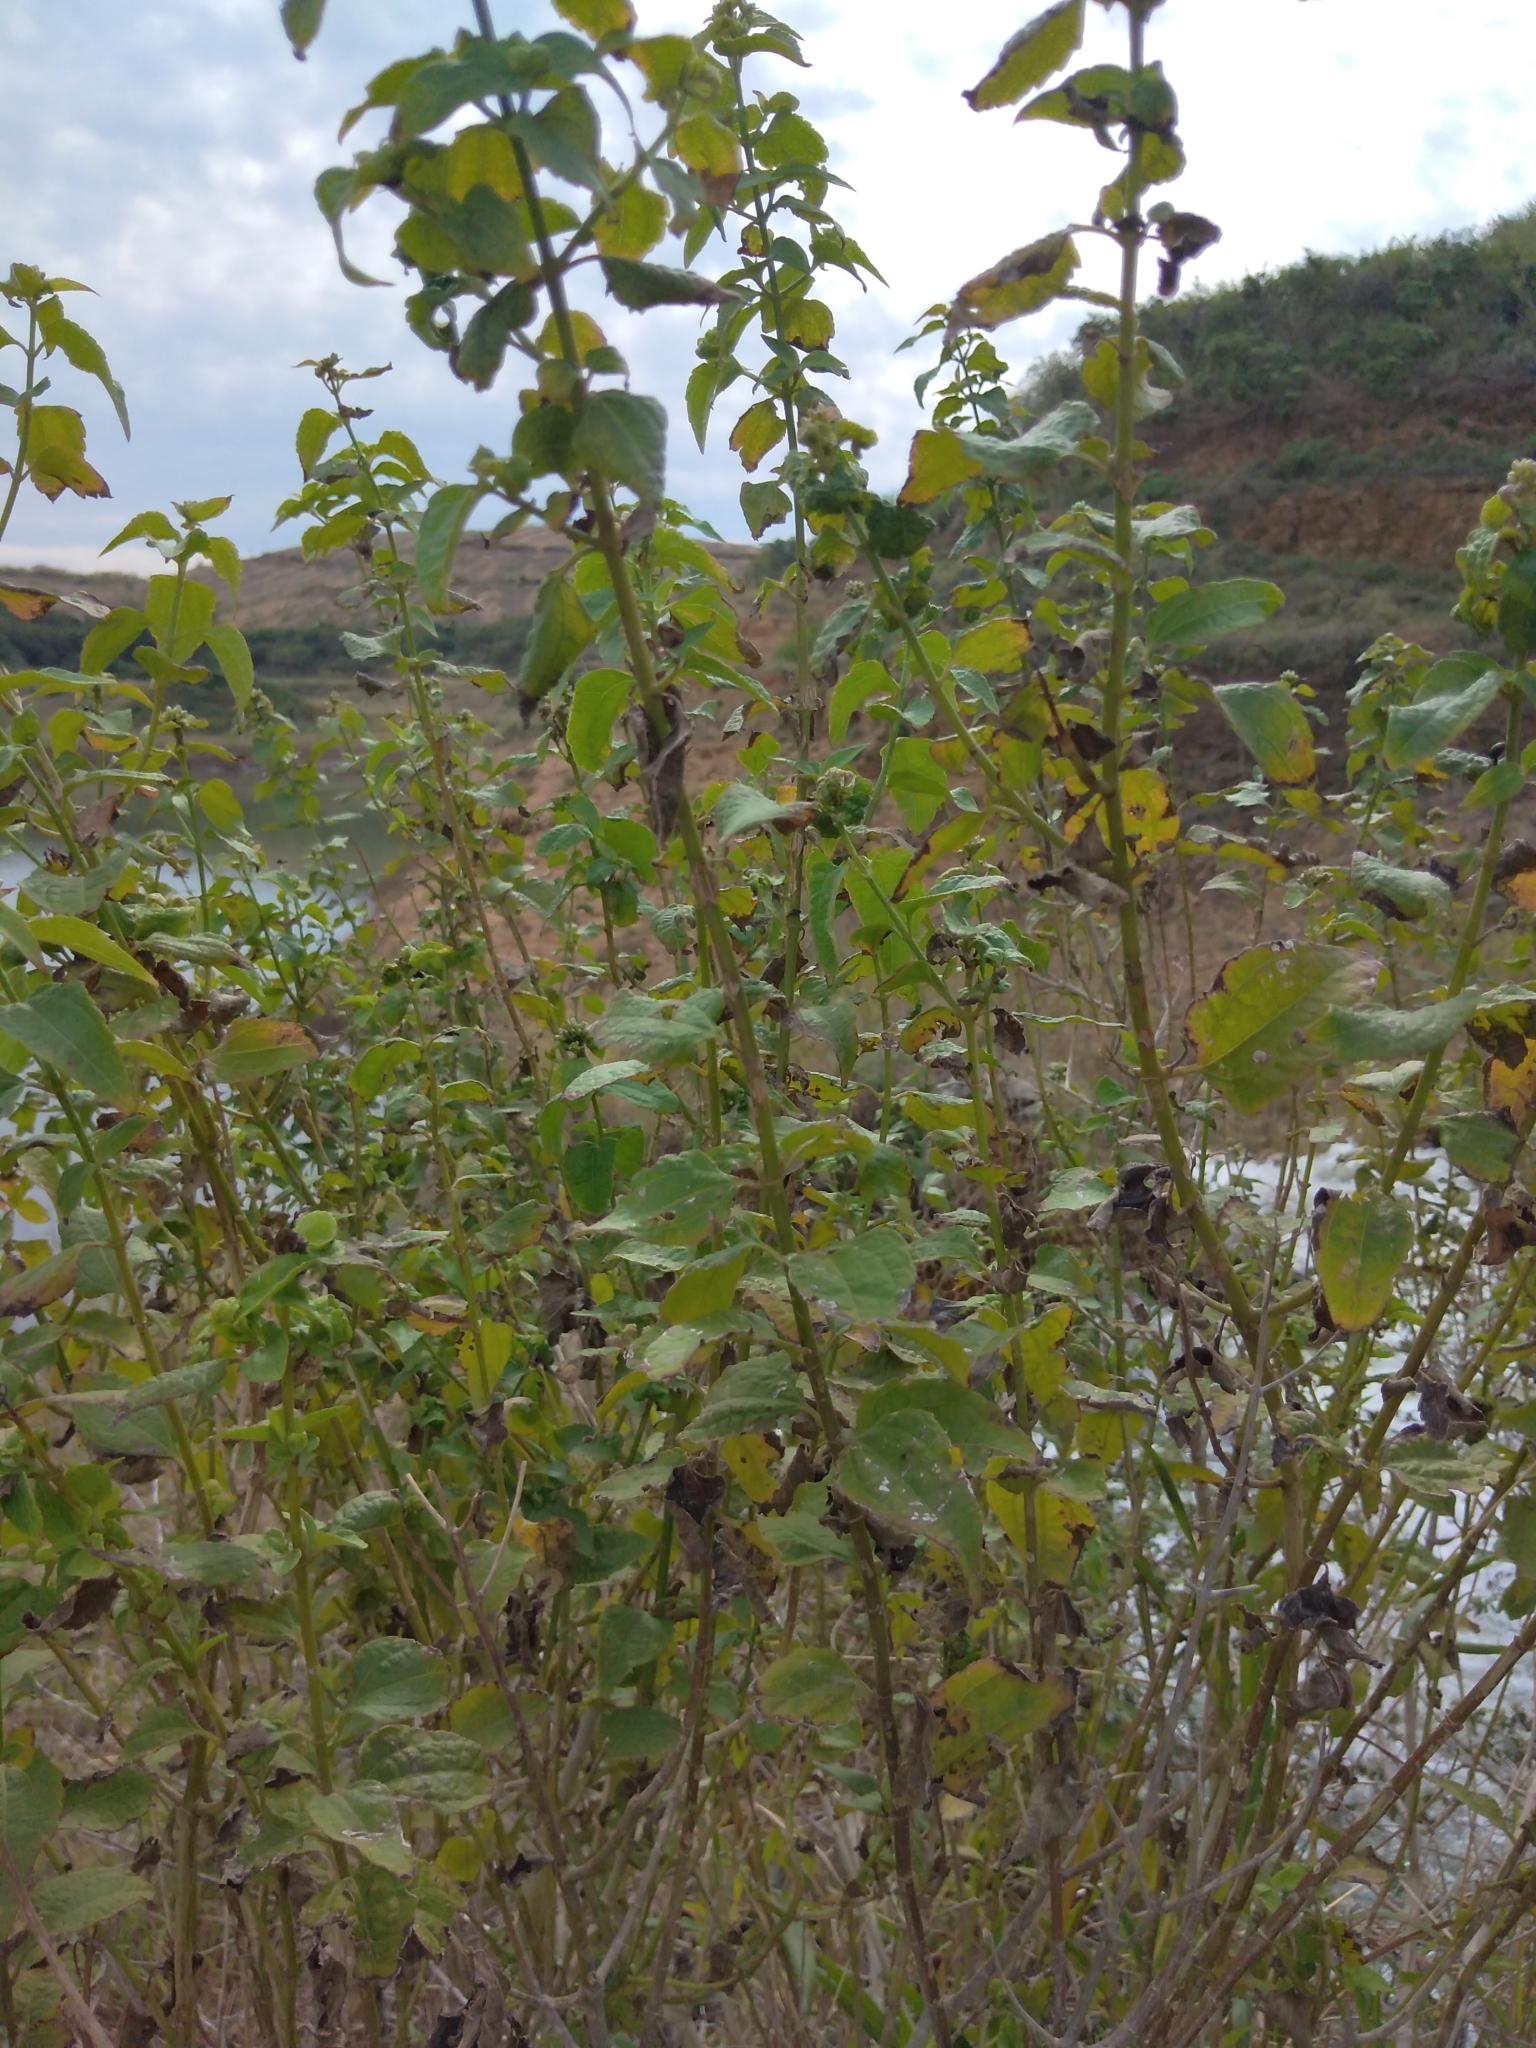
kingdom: Plantae
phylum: Tracheophyta
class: Magnoliopsida
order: Asterales
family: Asteraceae
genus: Chromolaena
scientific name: Chromolaena odorata
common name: Siamweed
